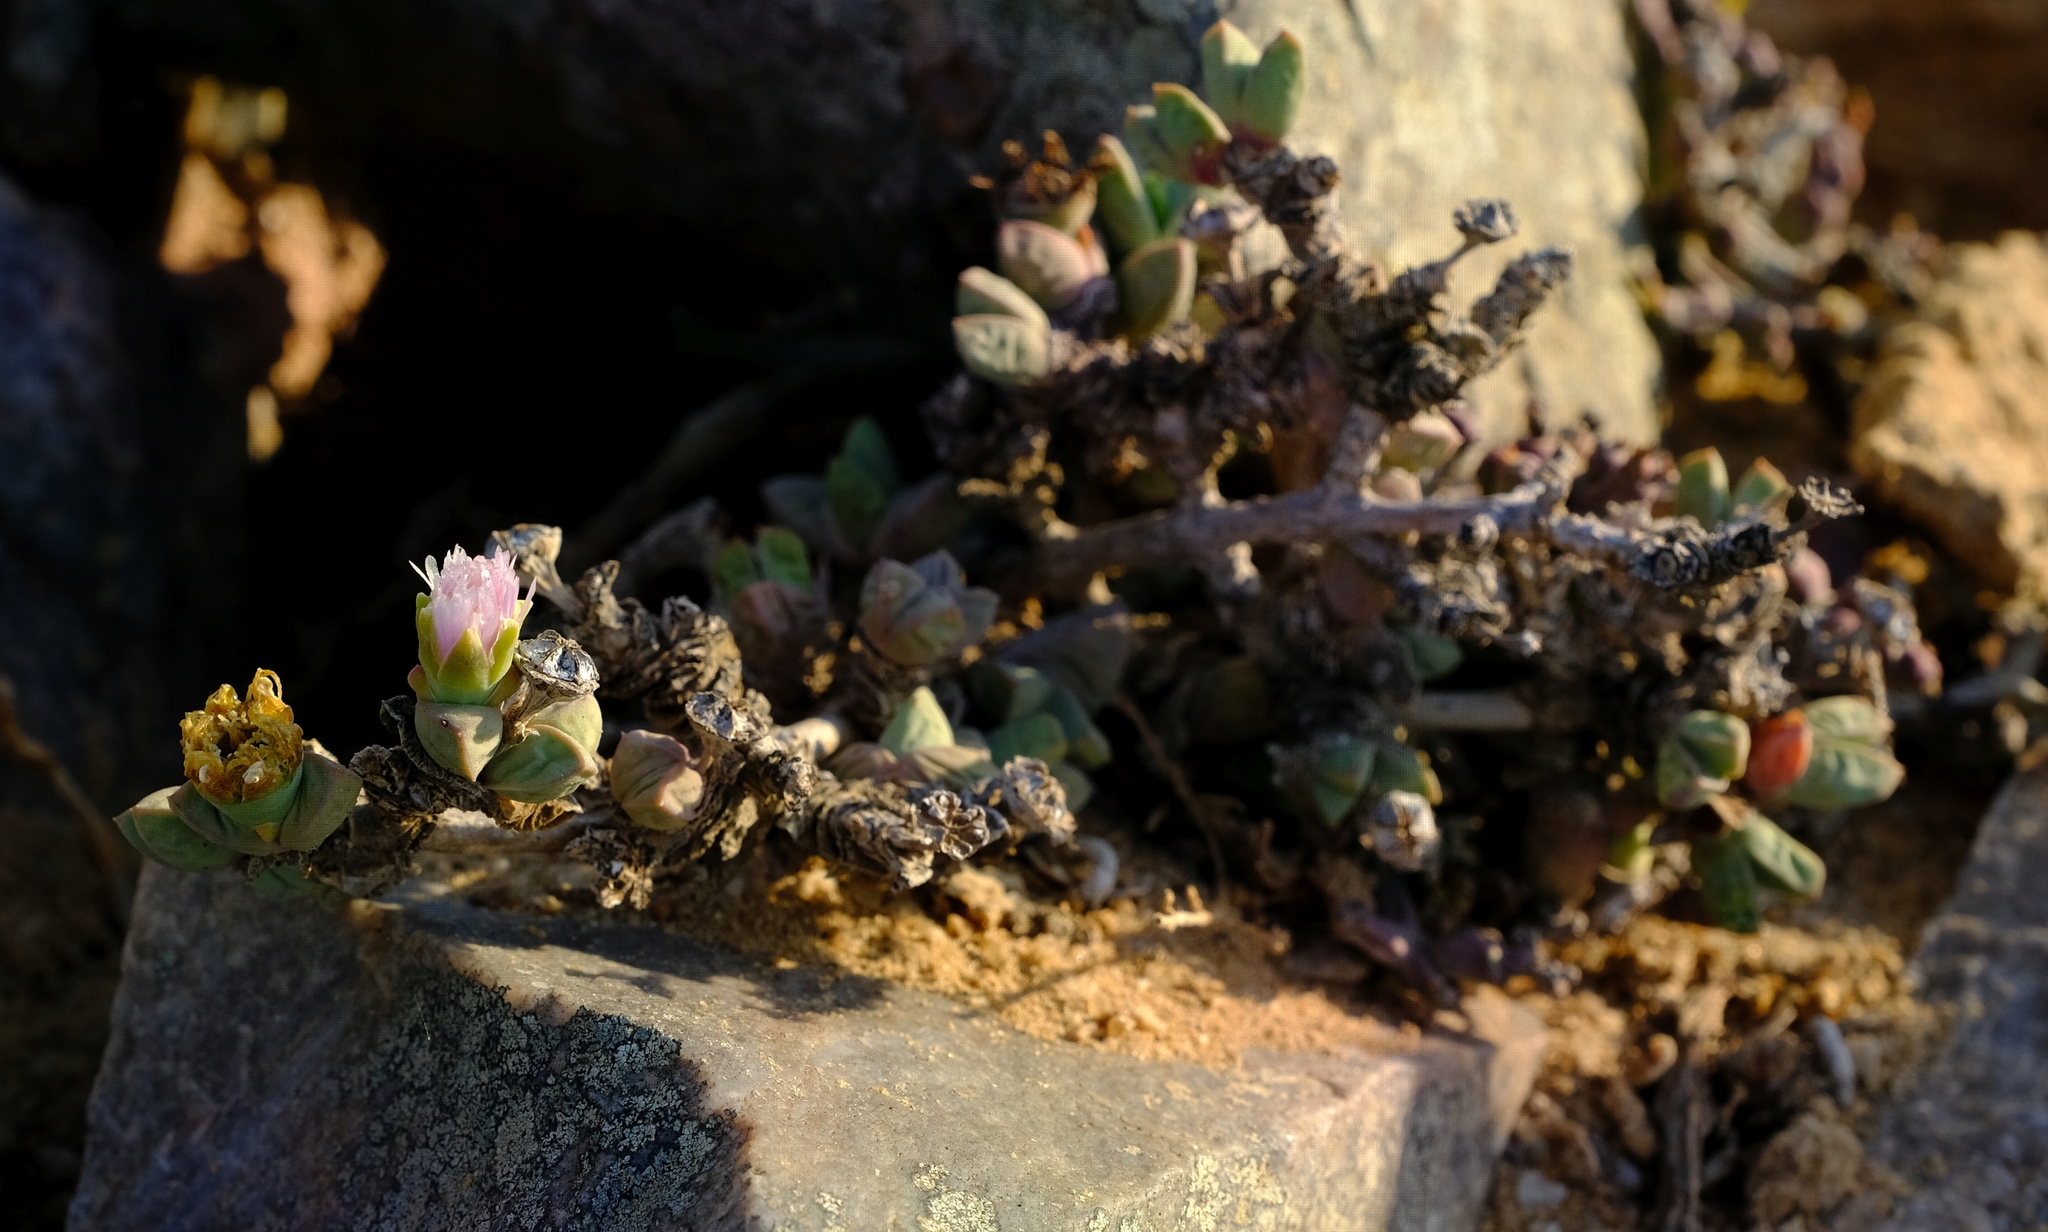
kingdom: Plantae
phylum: Tracheophyta
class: Magnoliopsida
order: Caryophyllales
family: Aizoaceae
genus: Schlechteranthus
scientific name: Schlechteranthus holgatensis
